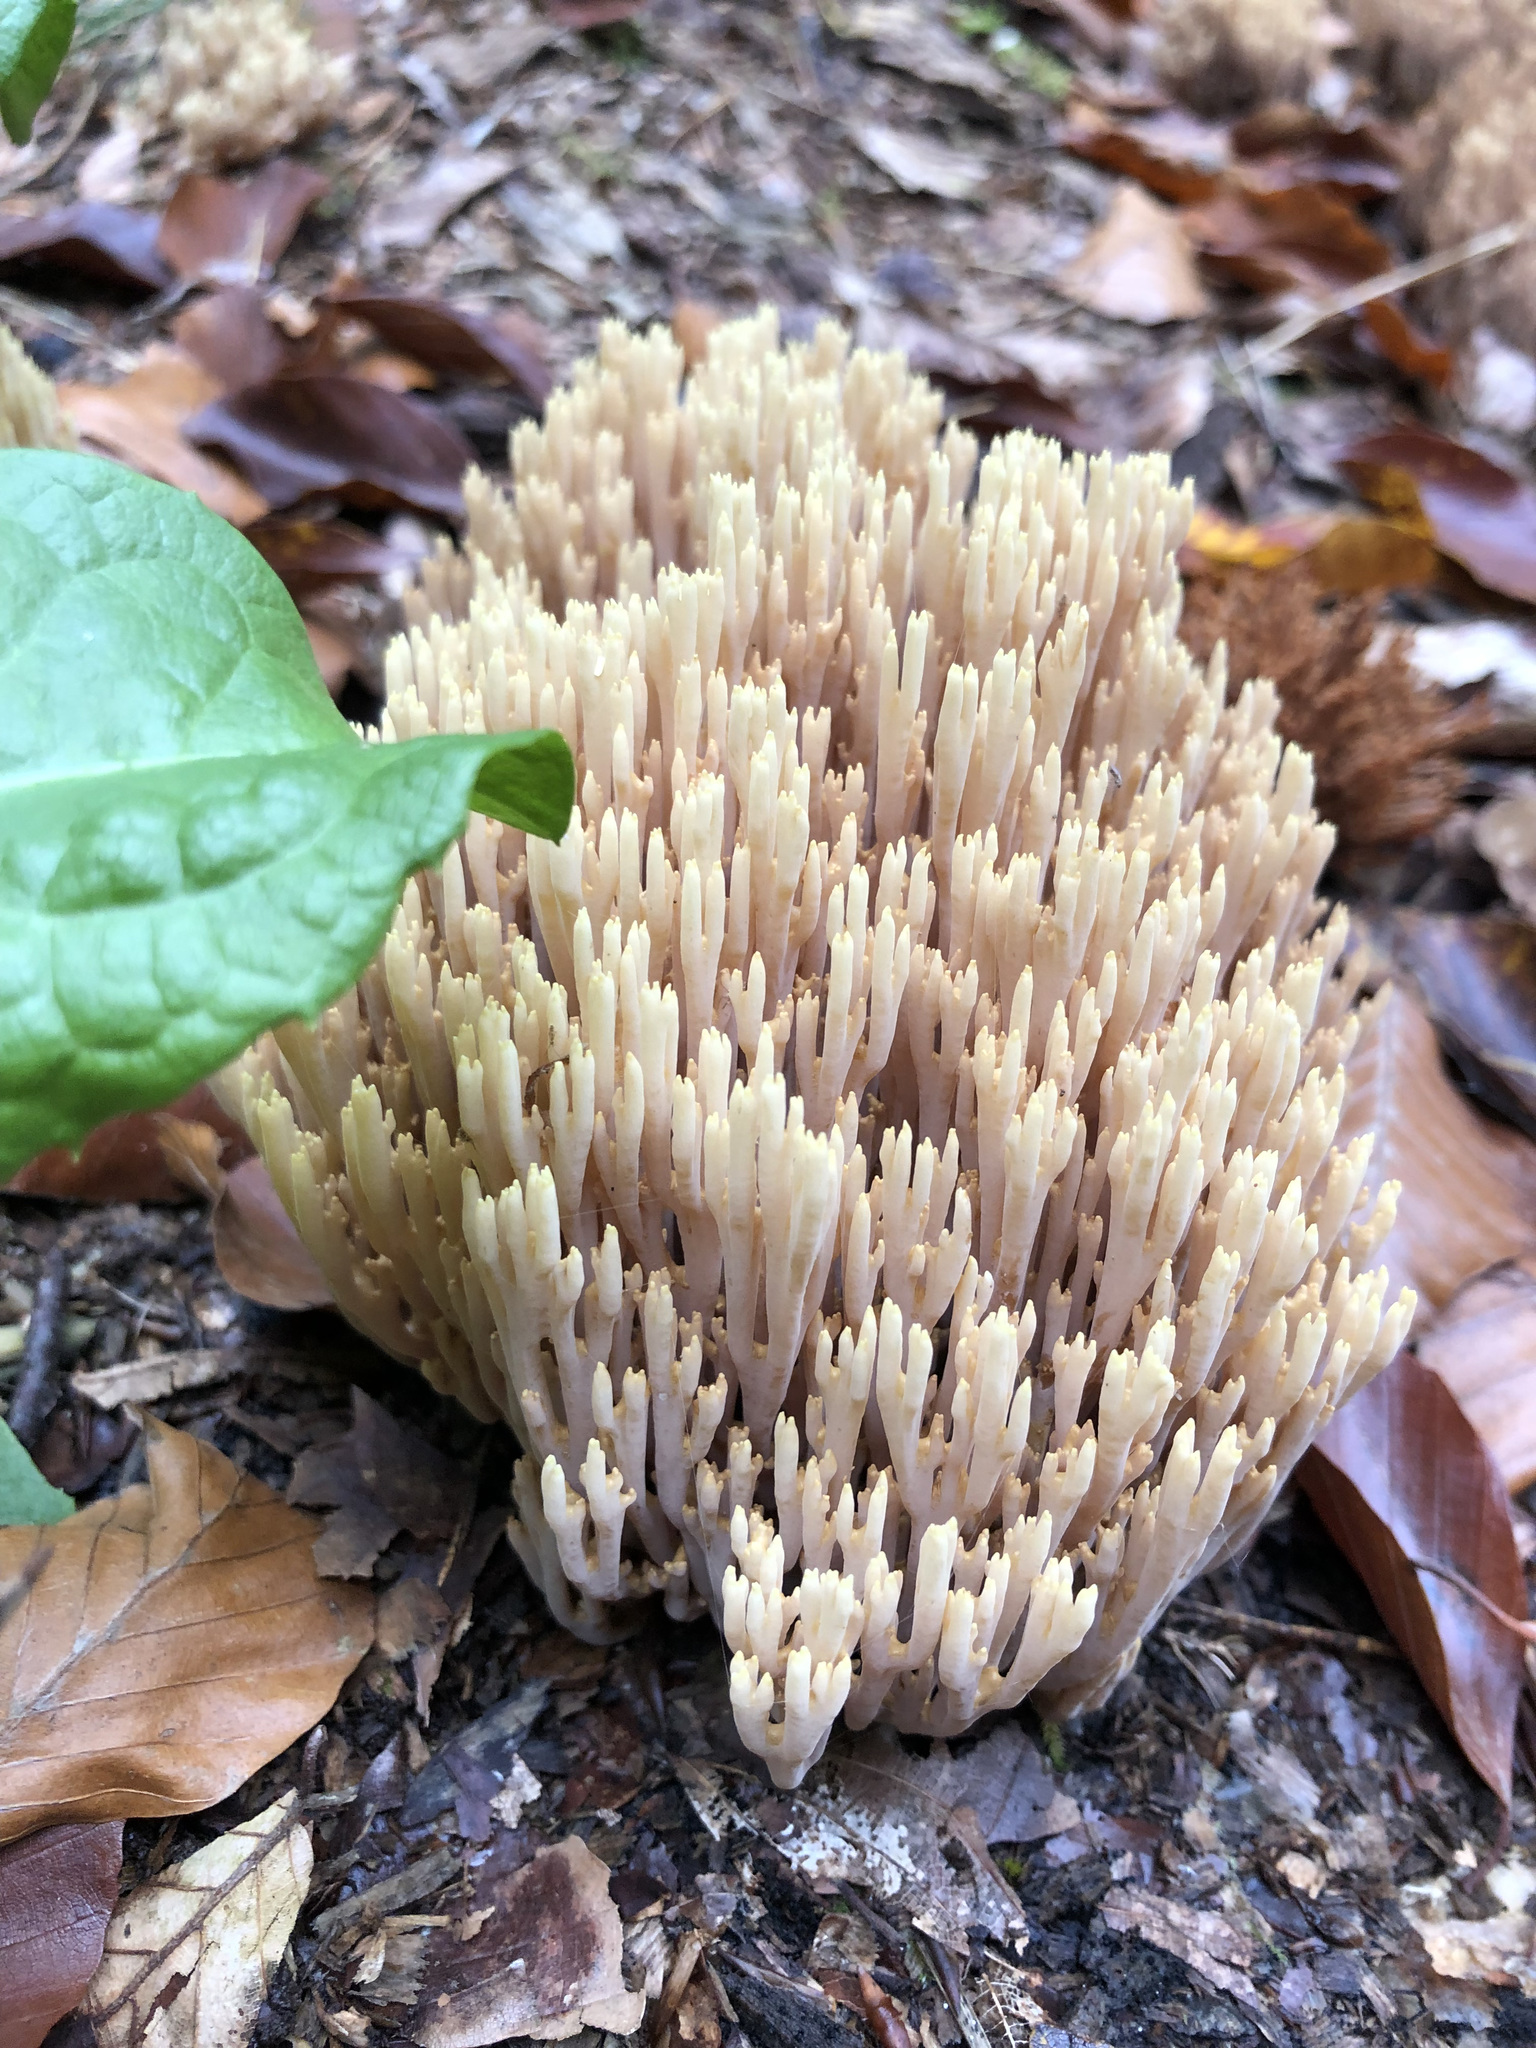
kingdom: Fungi
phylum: Basidiomycota
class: Agaricomycetes
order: Gomphales
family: Gomphaceae
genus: Ramaria
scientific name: Ramaria stricta
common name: Upright coral
